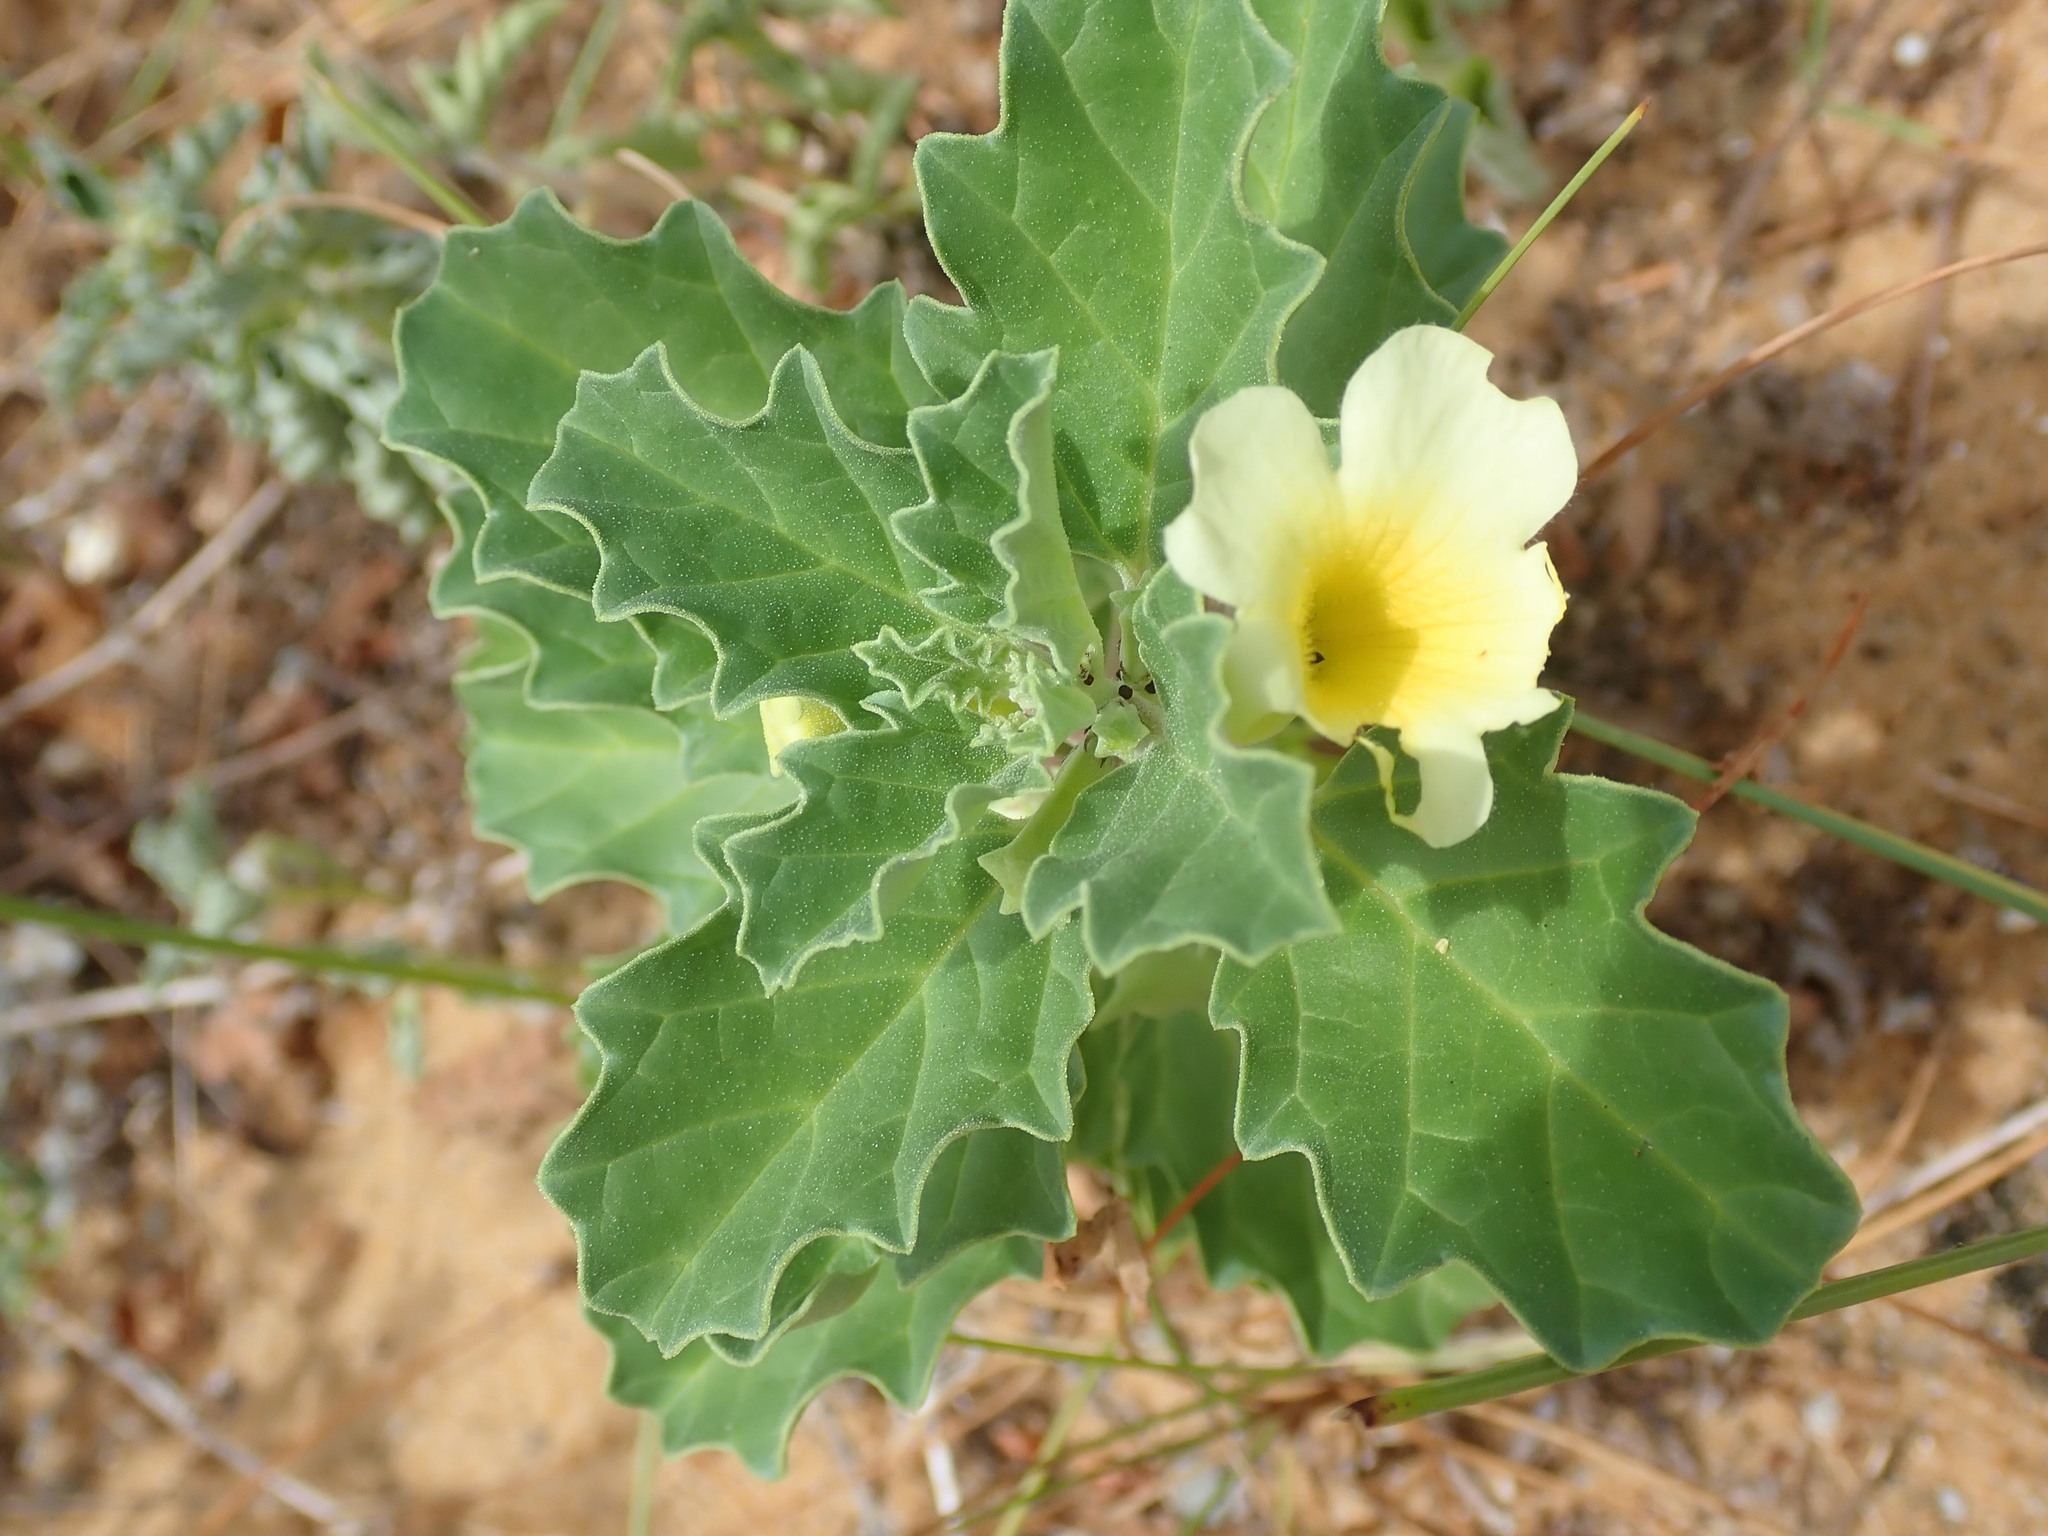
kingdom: Plantae
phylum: Tracheophyta
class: Magnoliopsida
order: Lamiales
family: Pedaliaceae
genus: Pedalium
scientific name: Pedalium murex
